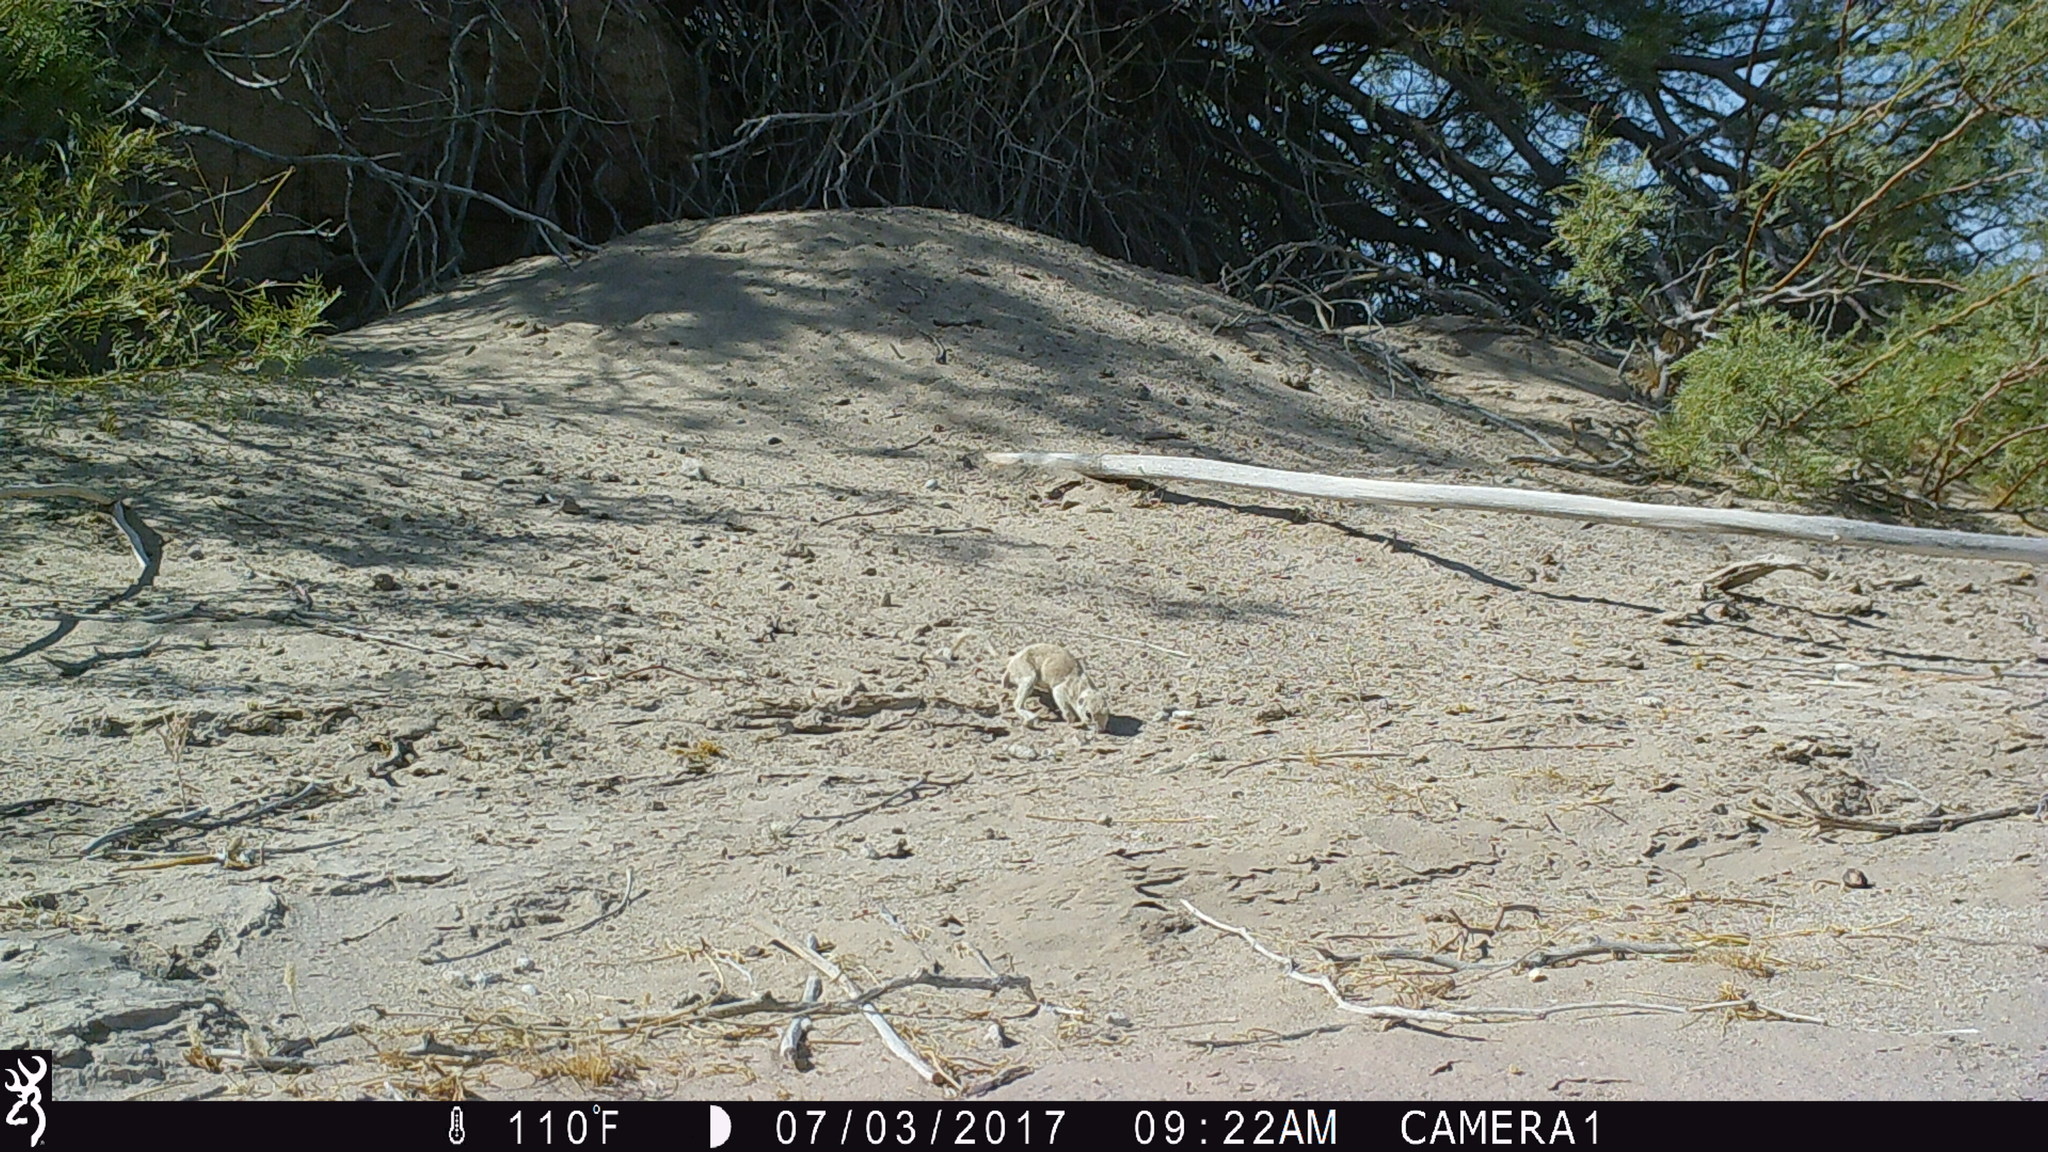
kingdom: Animalia
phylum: Chordata
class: Mammalia
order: Rodentia
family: Sciuridae
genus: Xerospermophilus
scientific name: Xerospermophilus tereticaudus
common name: Round-tailed ground squirrel
